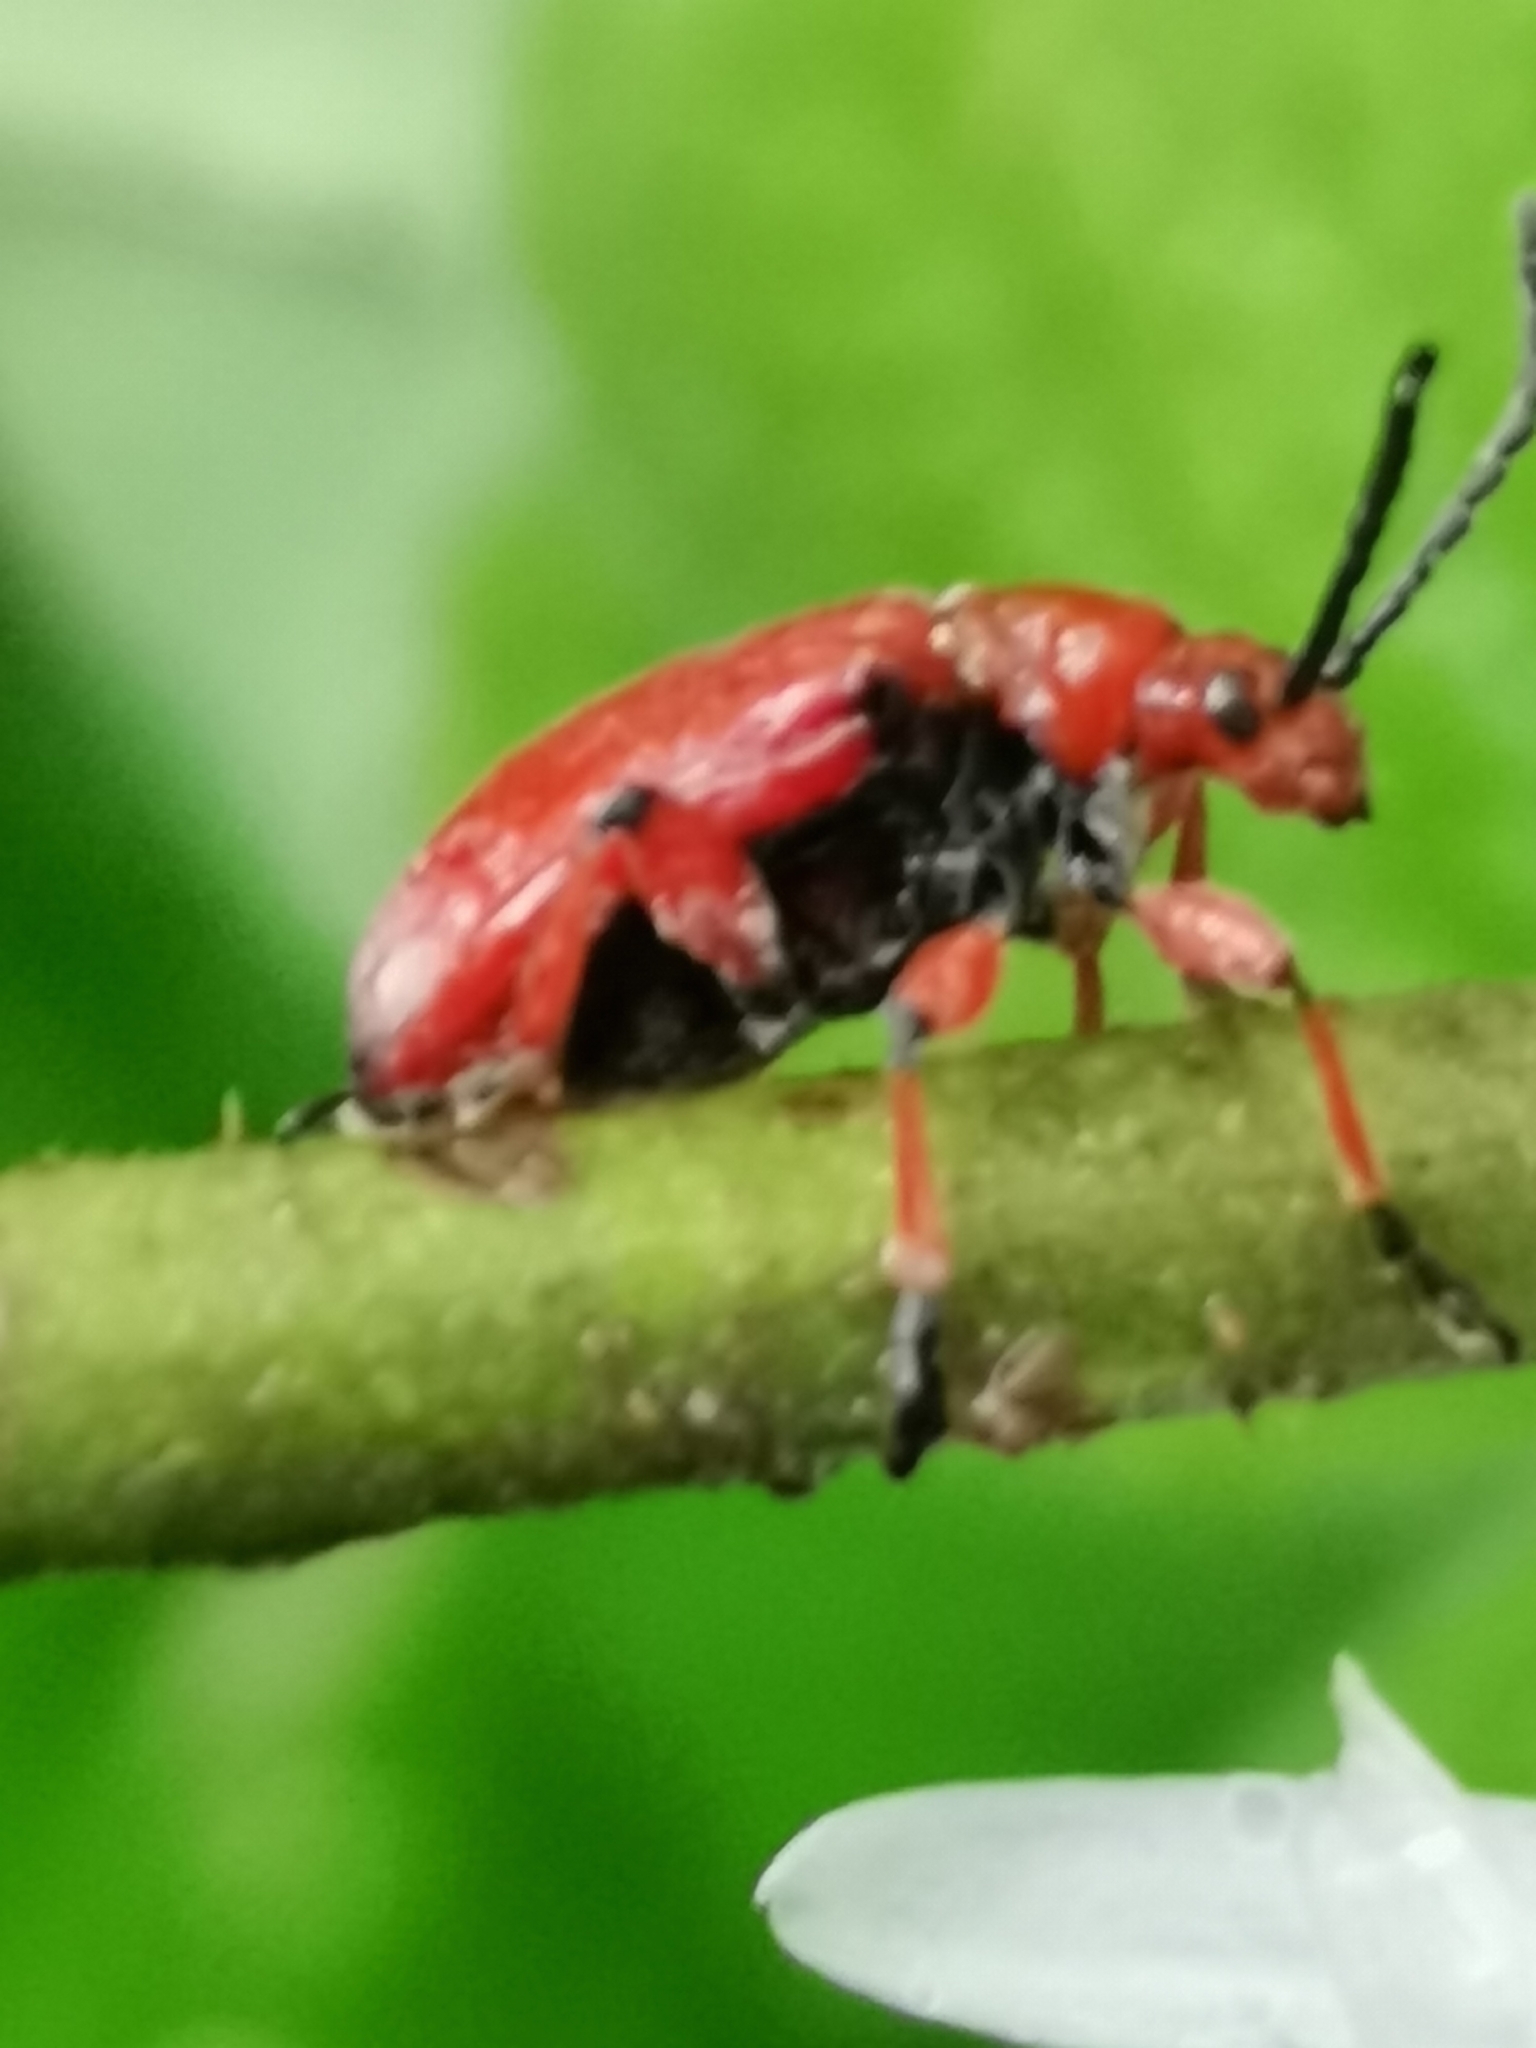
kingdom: Animalia
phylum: Arthropoda
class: Insecta
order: Coleoptera
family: Chrysomelidae
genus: Lilioceris
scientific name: Lilioceris merdigera
